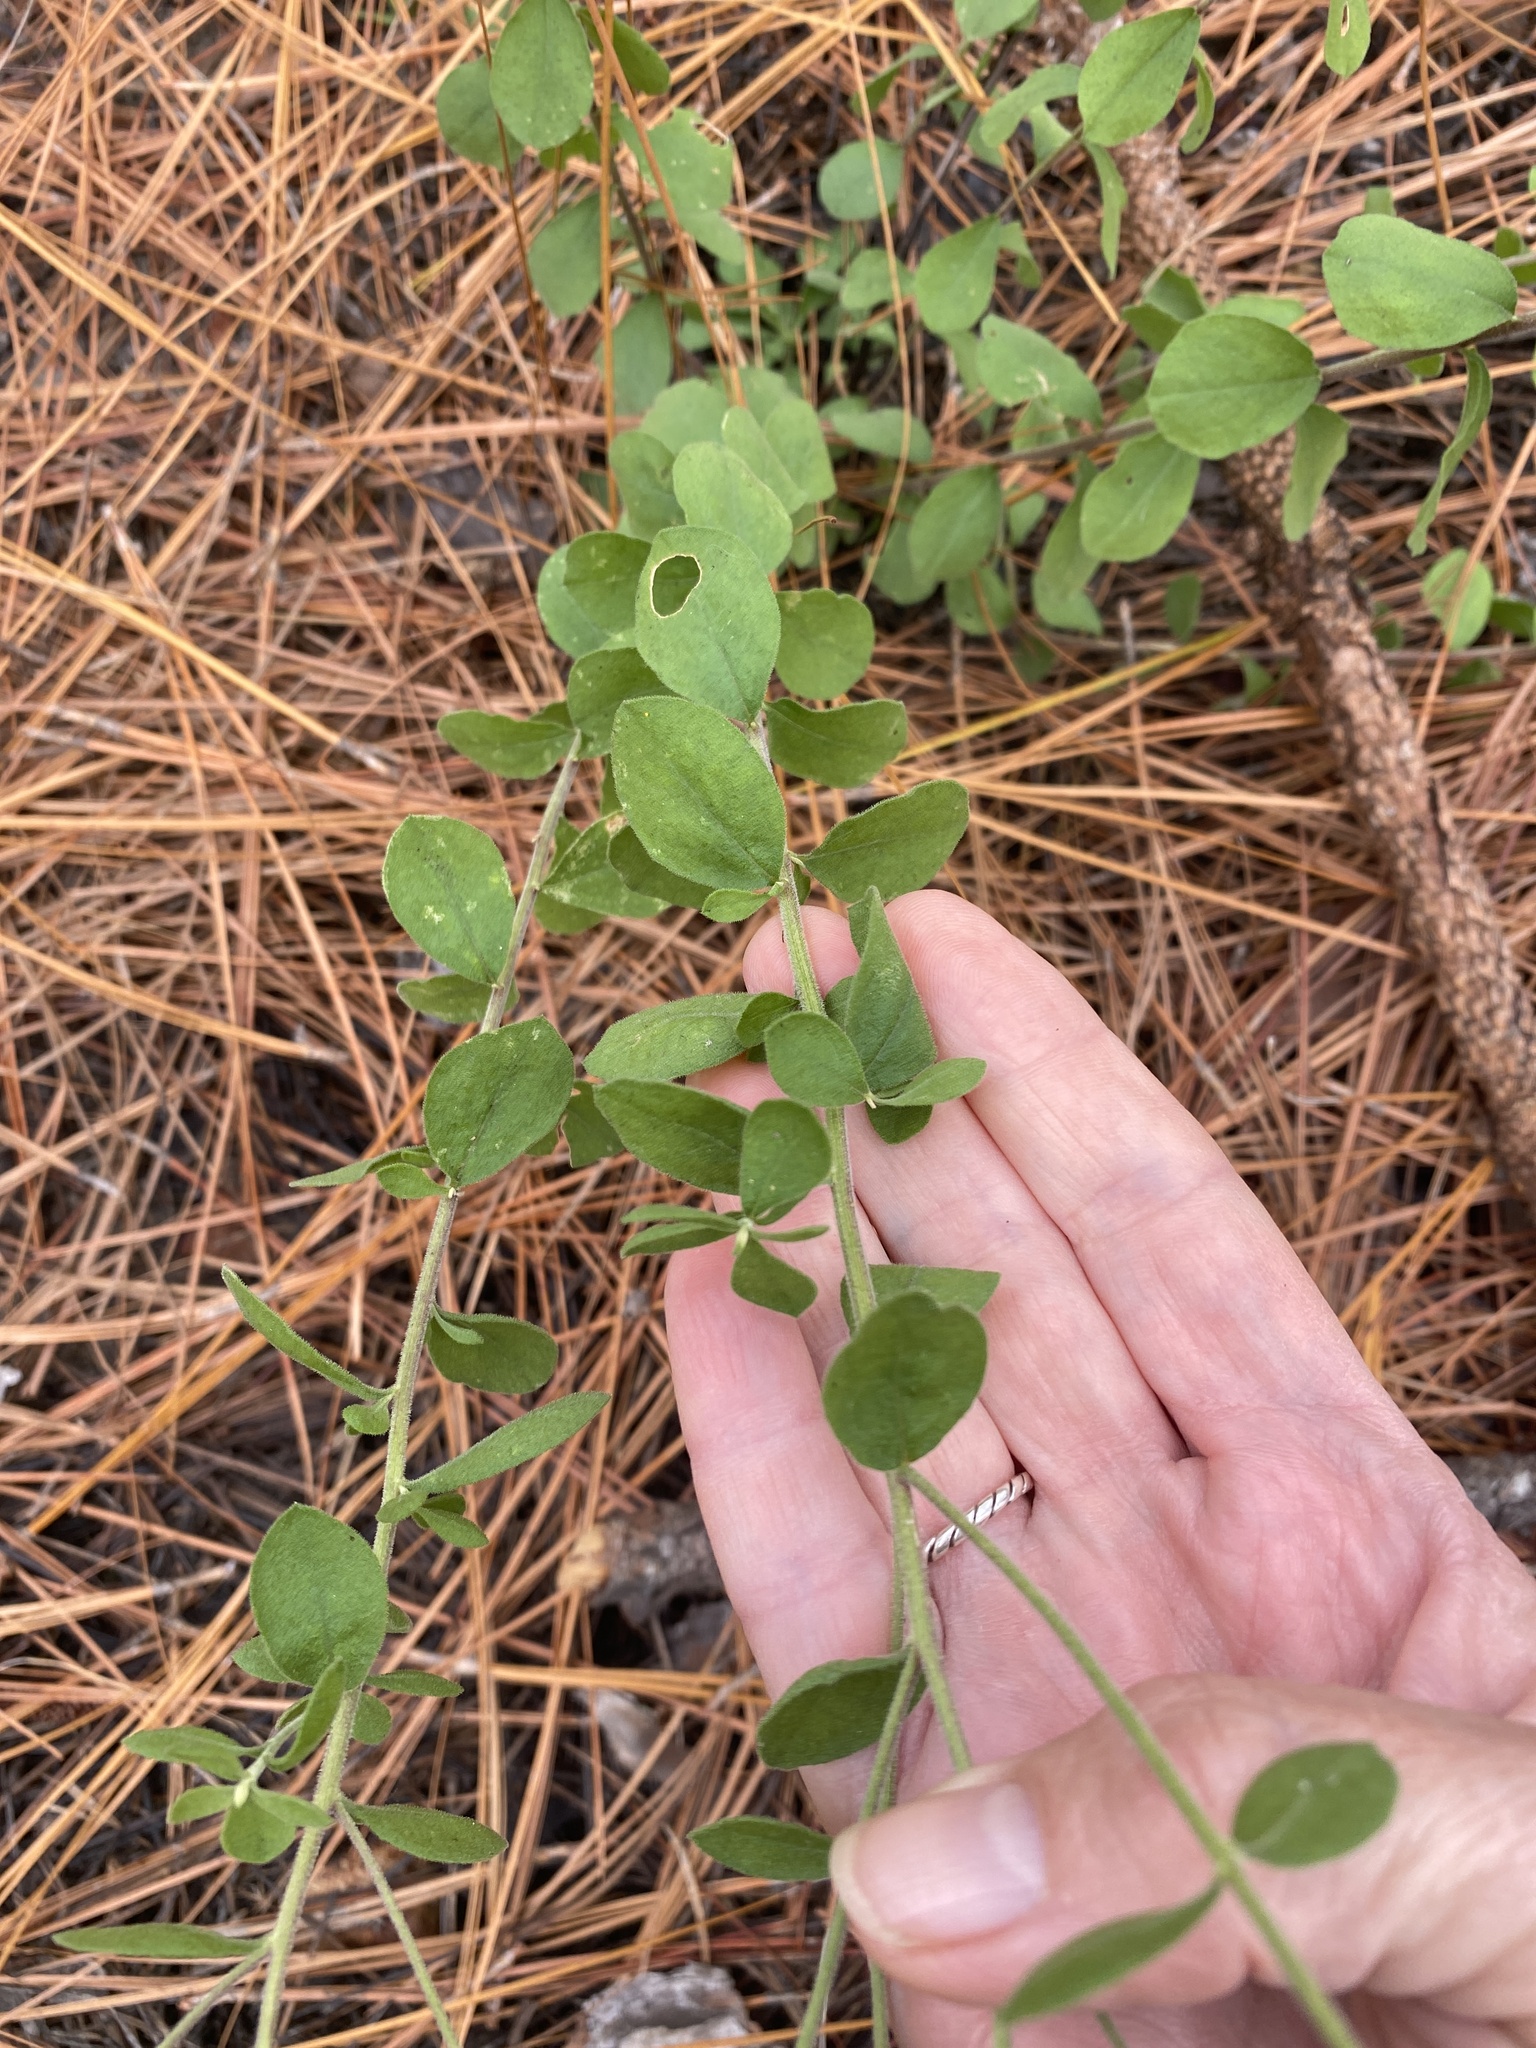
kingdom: Plantae
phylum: Tracheophyta
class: Magnoliopsida
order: Asterales
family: Asteraceae
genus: Sericocarpus
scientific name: Sericocarpus tortifolius
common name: Dixie aster
